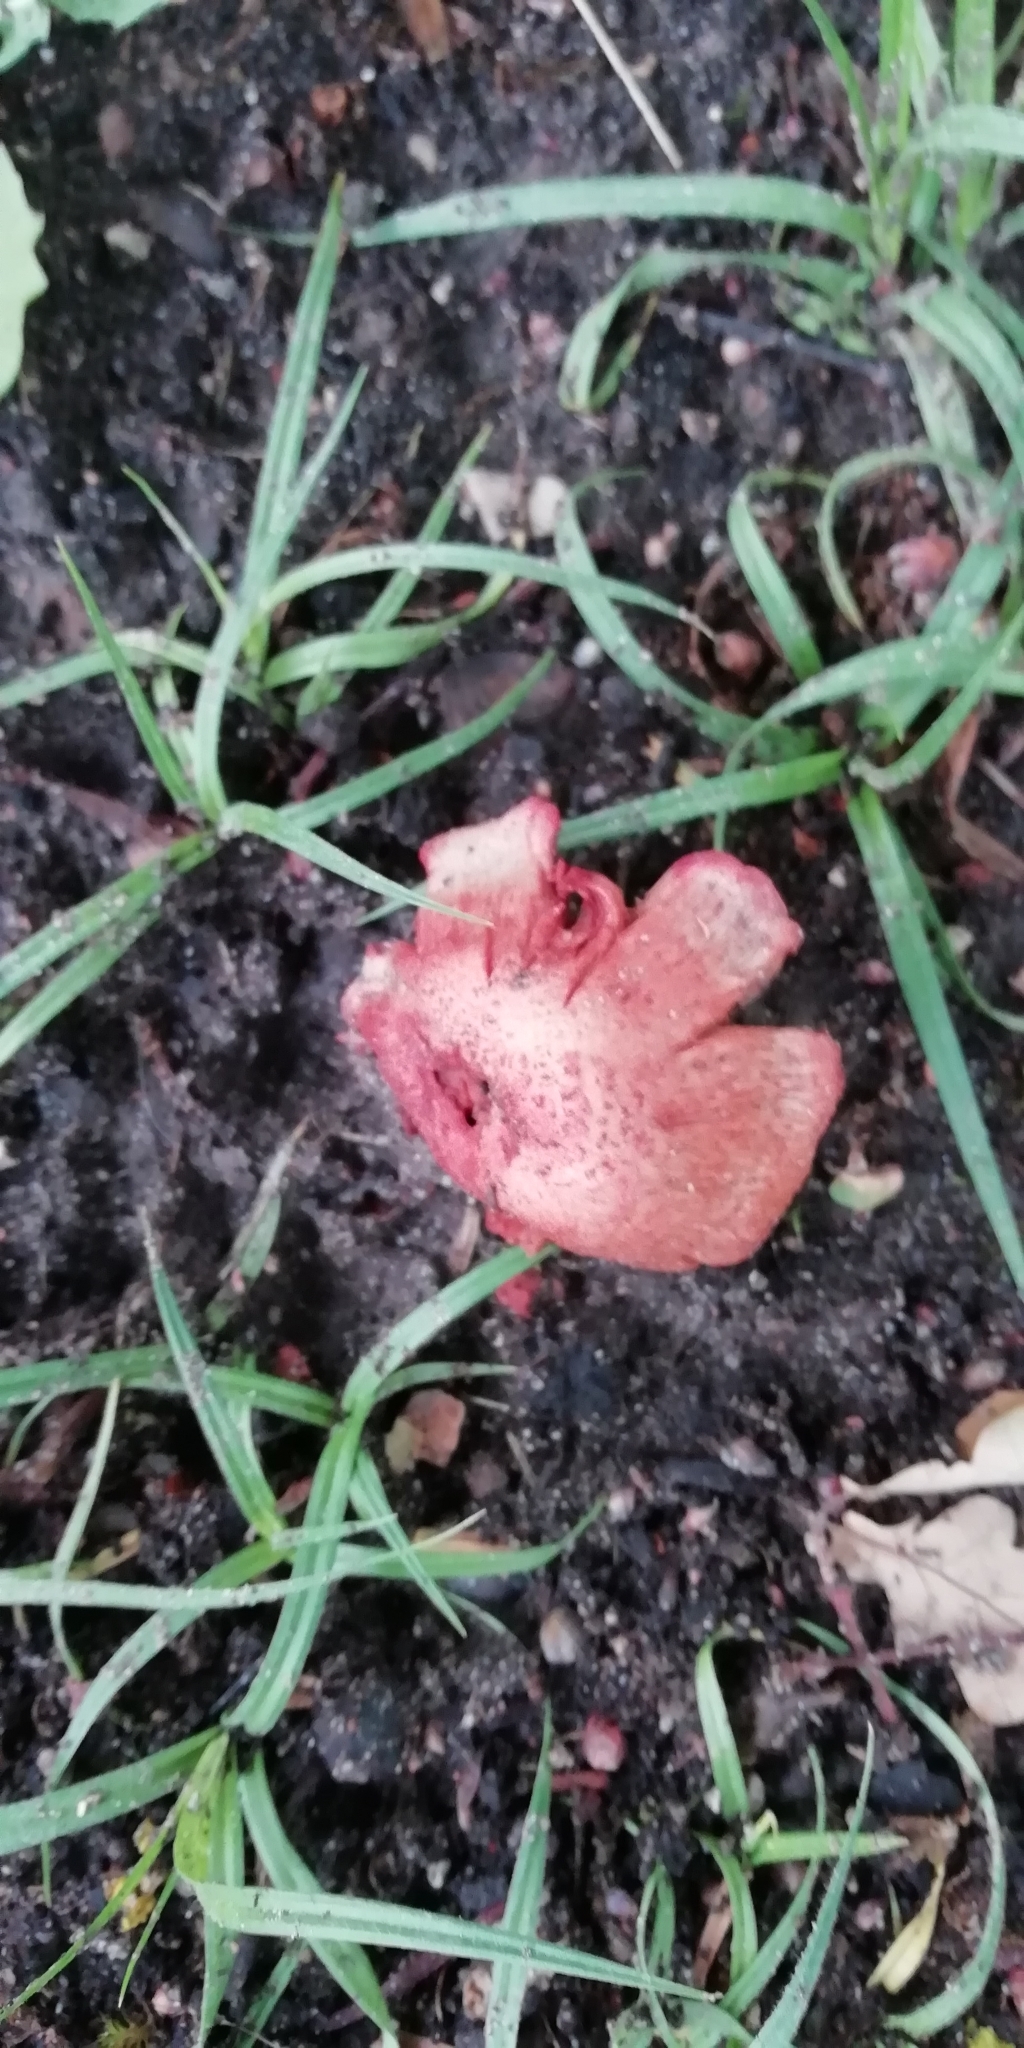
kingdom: Fungi
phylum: Basidiomycota
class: Agaricomycetes
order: Agaricales
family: Inocybaceae
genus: Inosperma
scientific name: Inosperma erubescens
